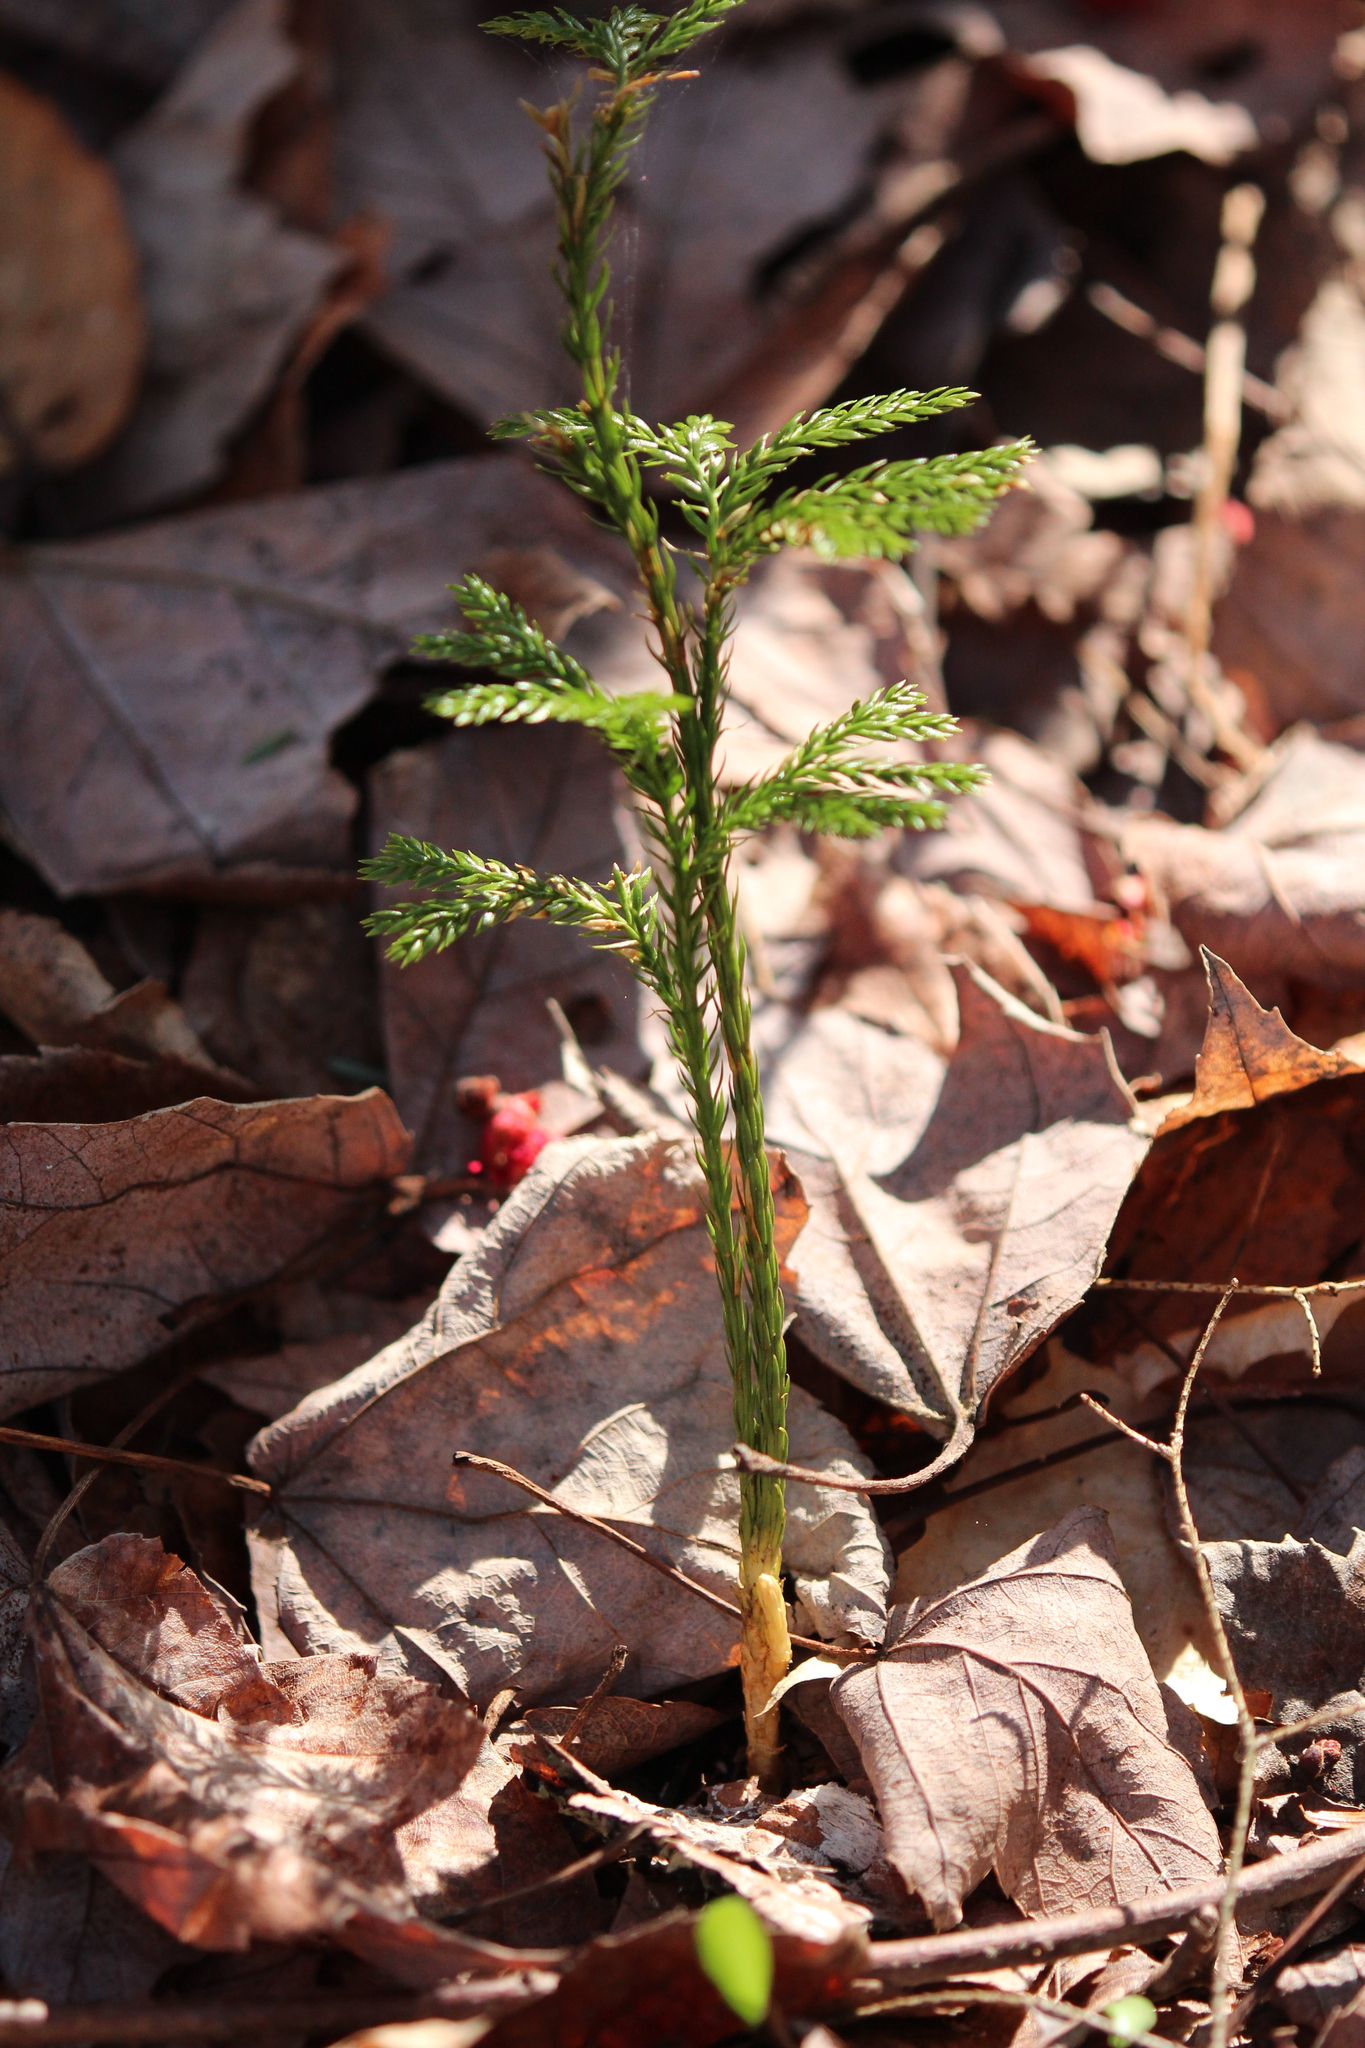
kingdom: Plantae
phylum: Tracheophyta
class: Lycopodiopsida
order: Lycopodiales
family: Lycopodiaceae
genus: Dendrolycopodium
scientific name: Dendrolycopodium obscurum
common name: Common ground-pine
